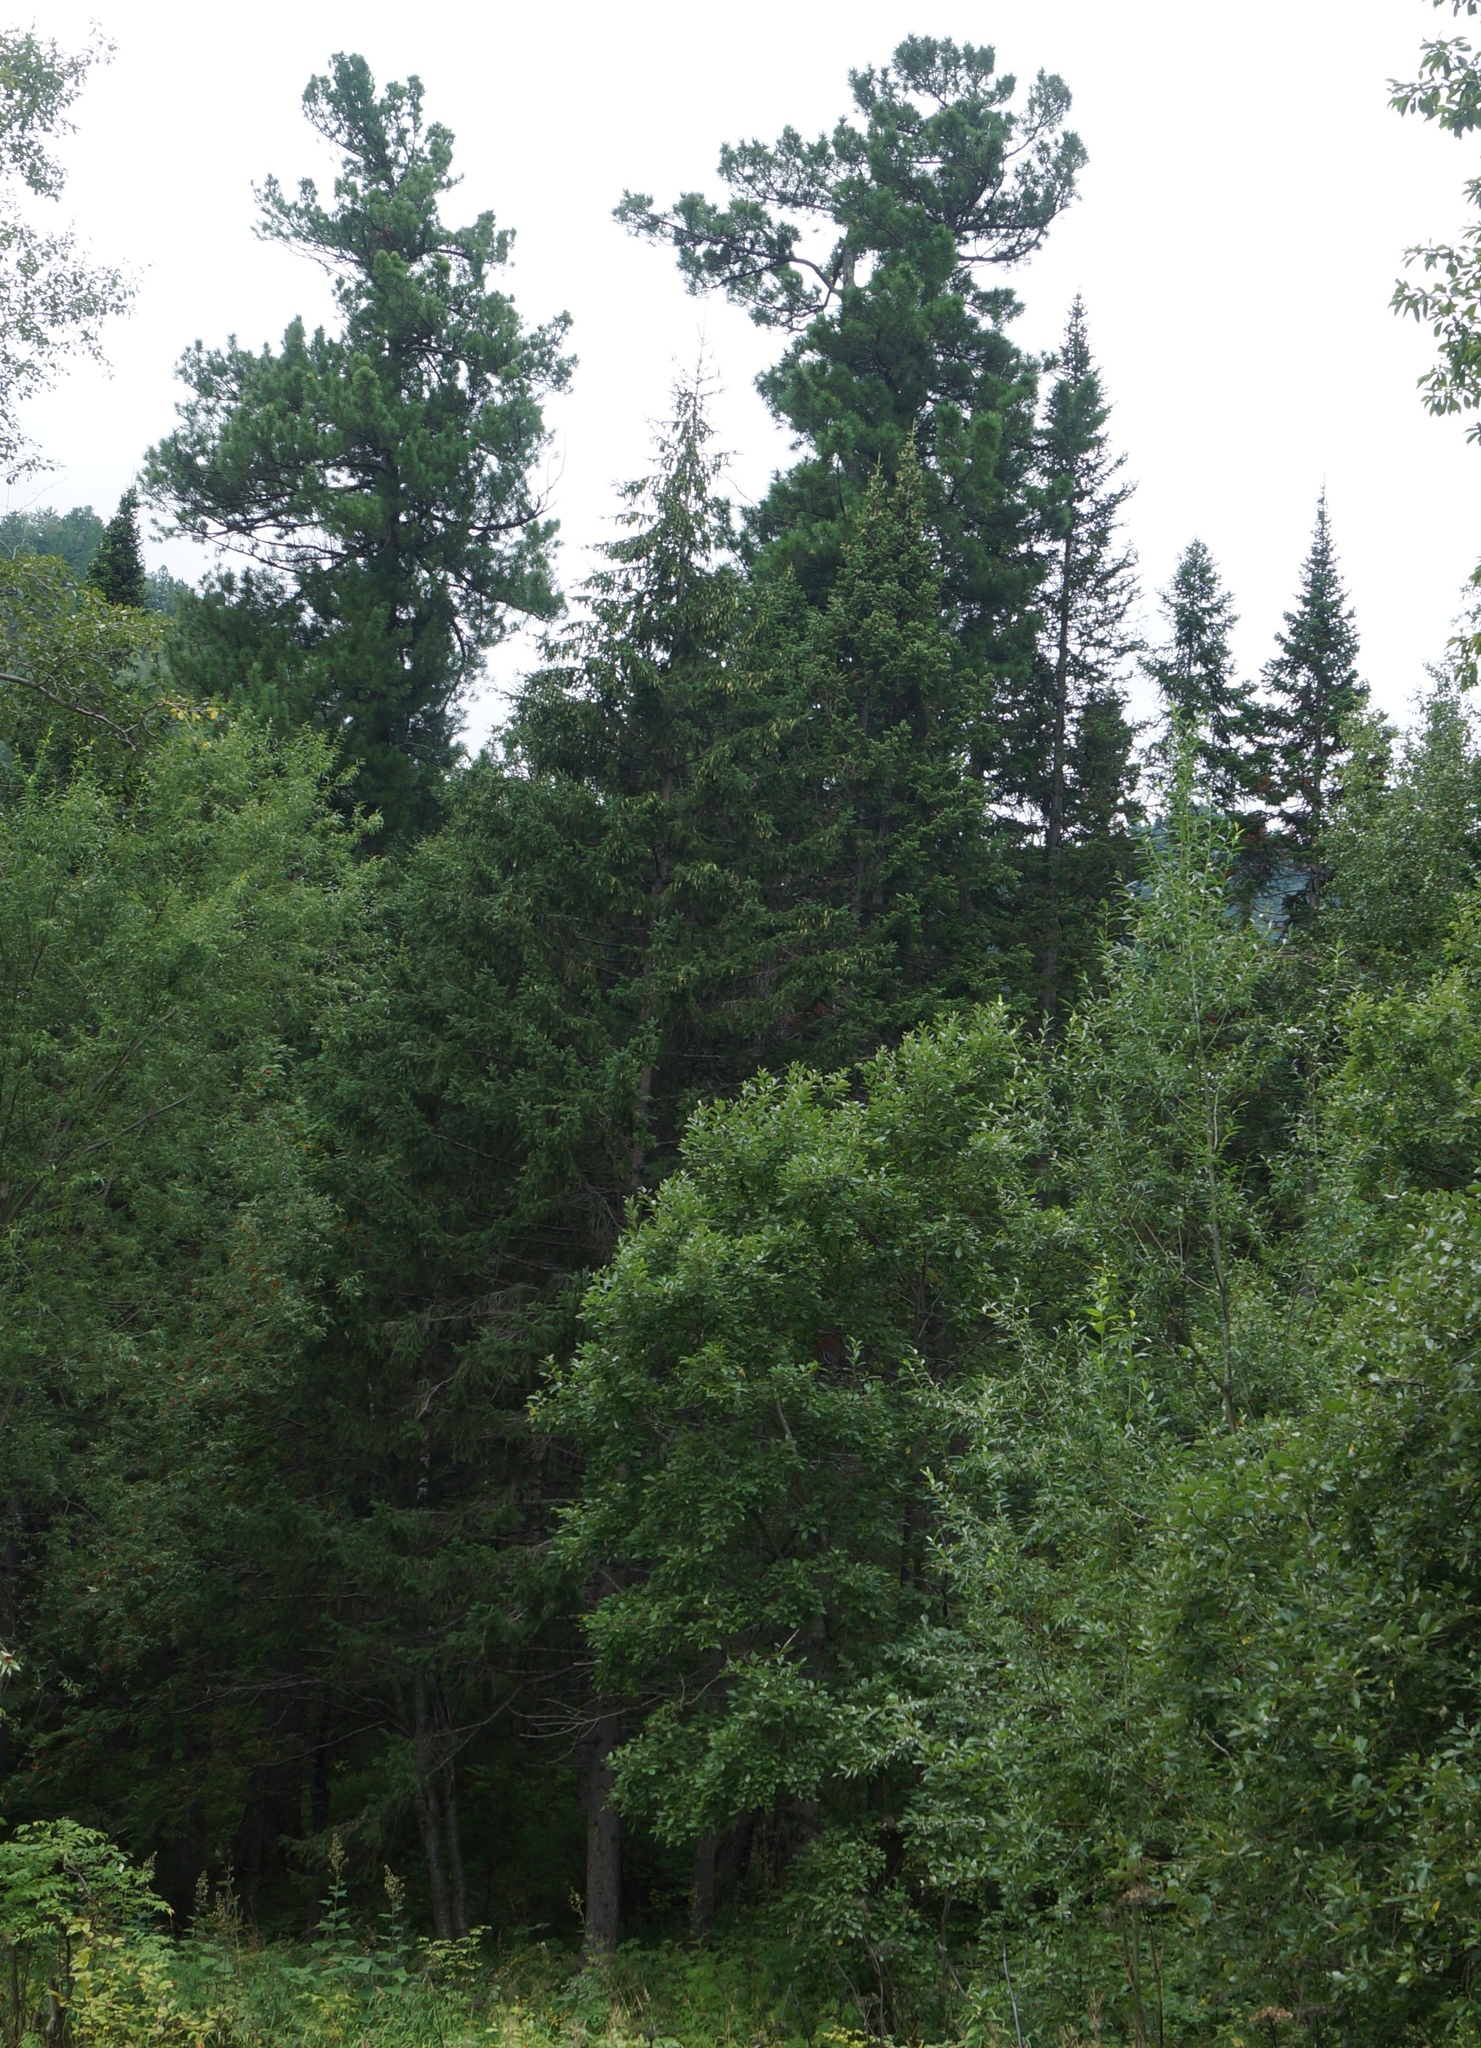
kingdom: Plantae
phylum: Tracheophyta
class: Pinopsida
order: Pinales
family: Pinaceae
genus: Pinus
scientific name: Pinus sibirica
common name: Siberian pine
